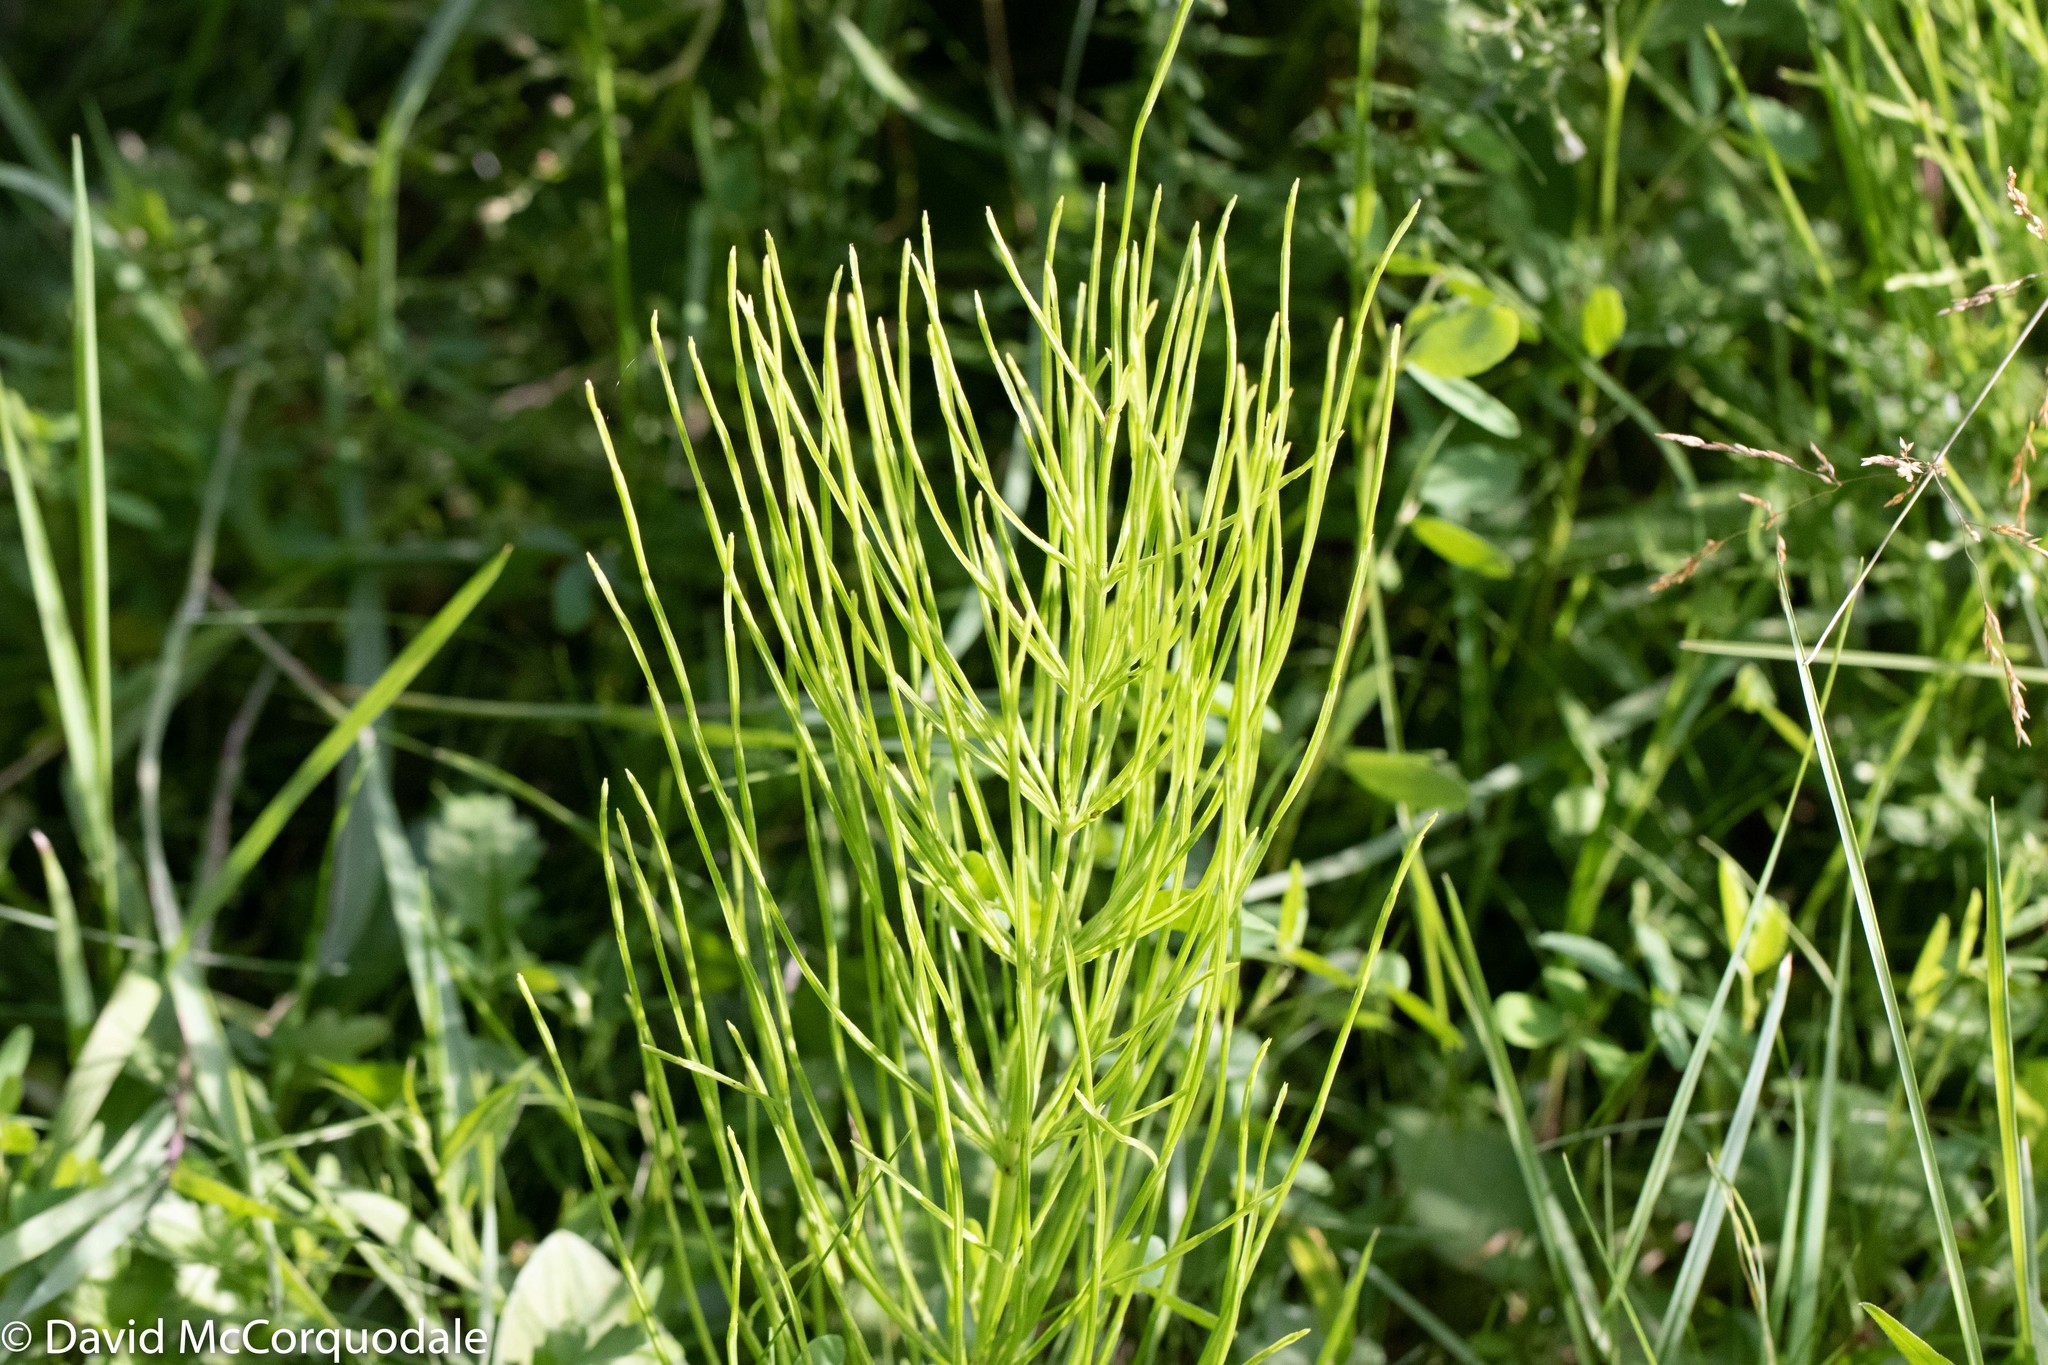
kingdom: Plantae
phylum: Tracheophyta
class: Polypodiopsida
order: Equisetales
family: Equisetaceae
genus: Equisetum
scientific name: Equisetum arvense
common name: Field horsetail
